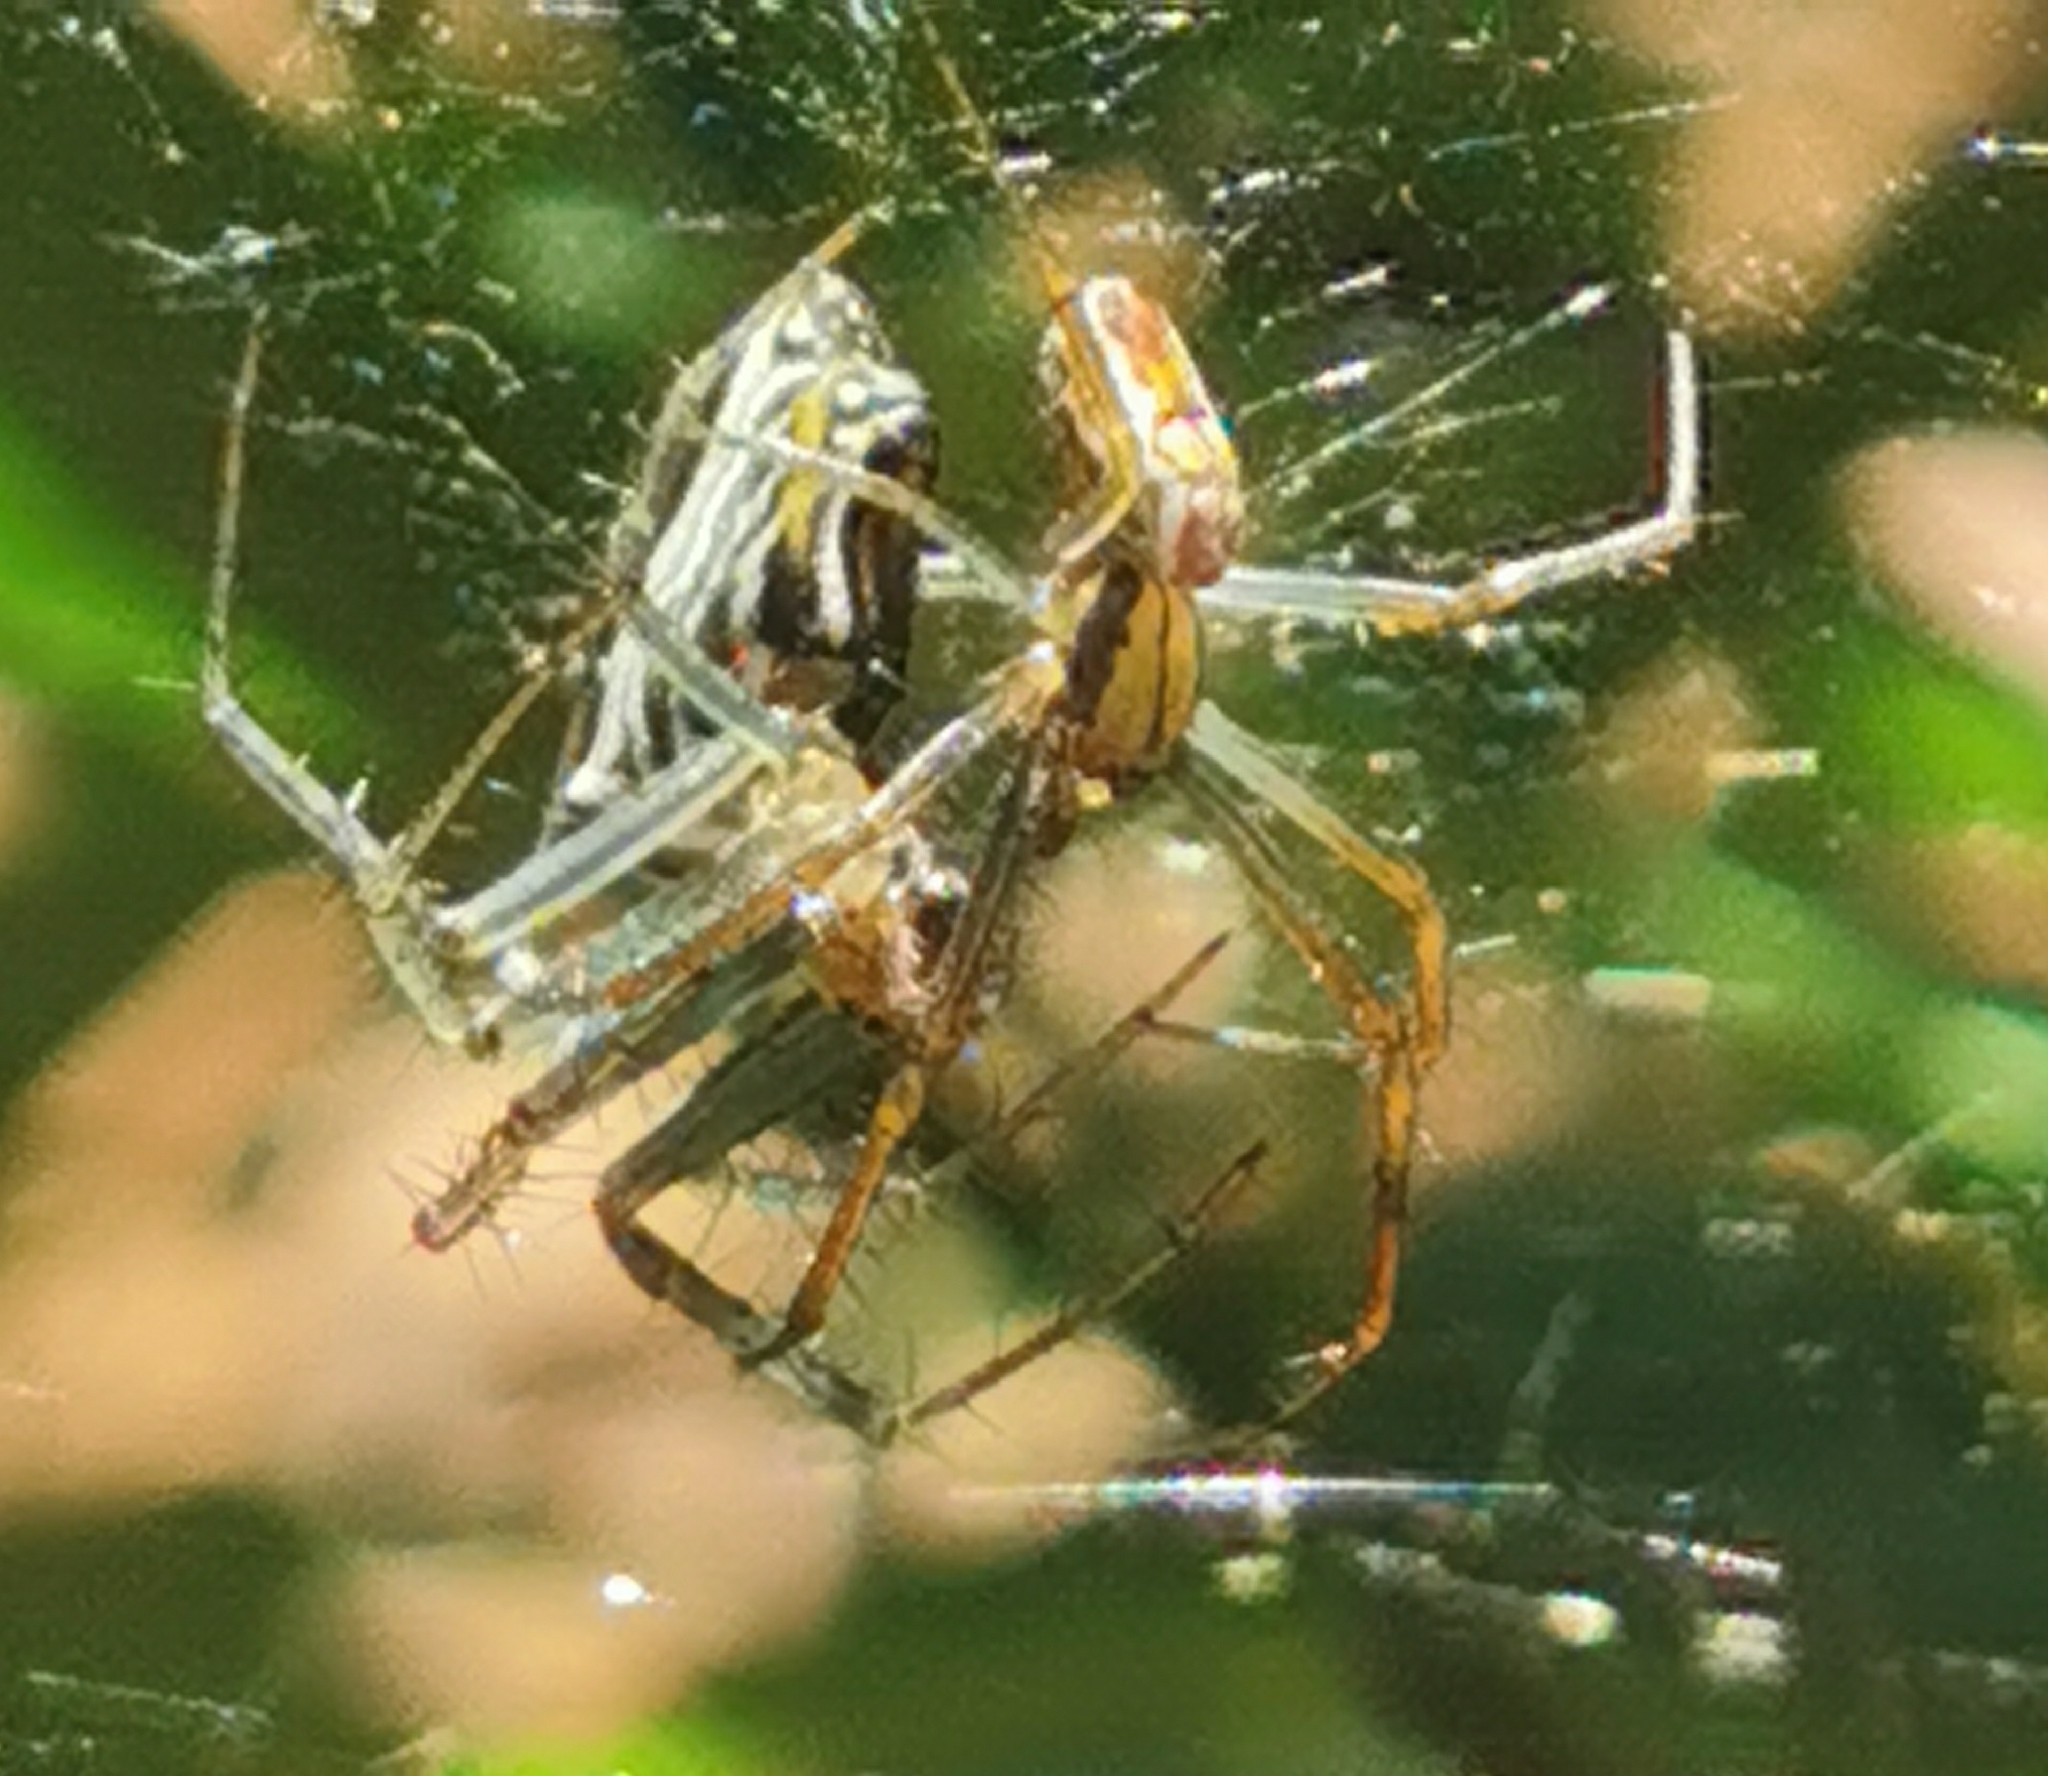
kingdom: Animalia
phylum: Arthropoda
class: Arachnida
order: Araneae
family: Araneidae
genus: Mecynogea
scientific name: Mecynogea lemniscata
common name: Orb weavers
